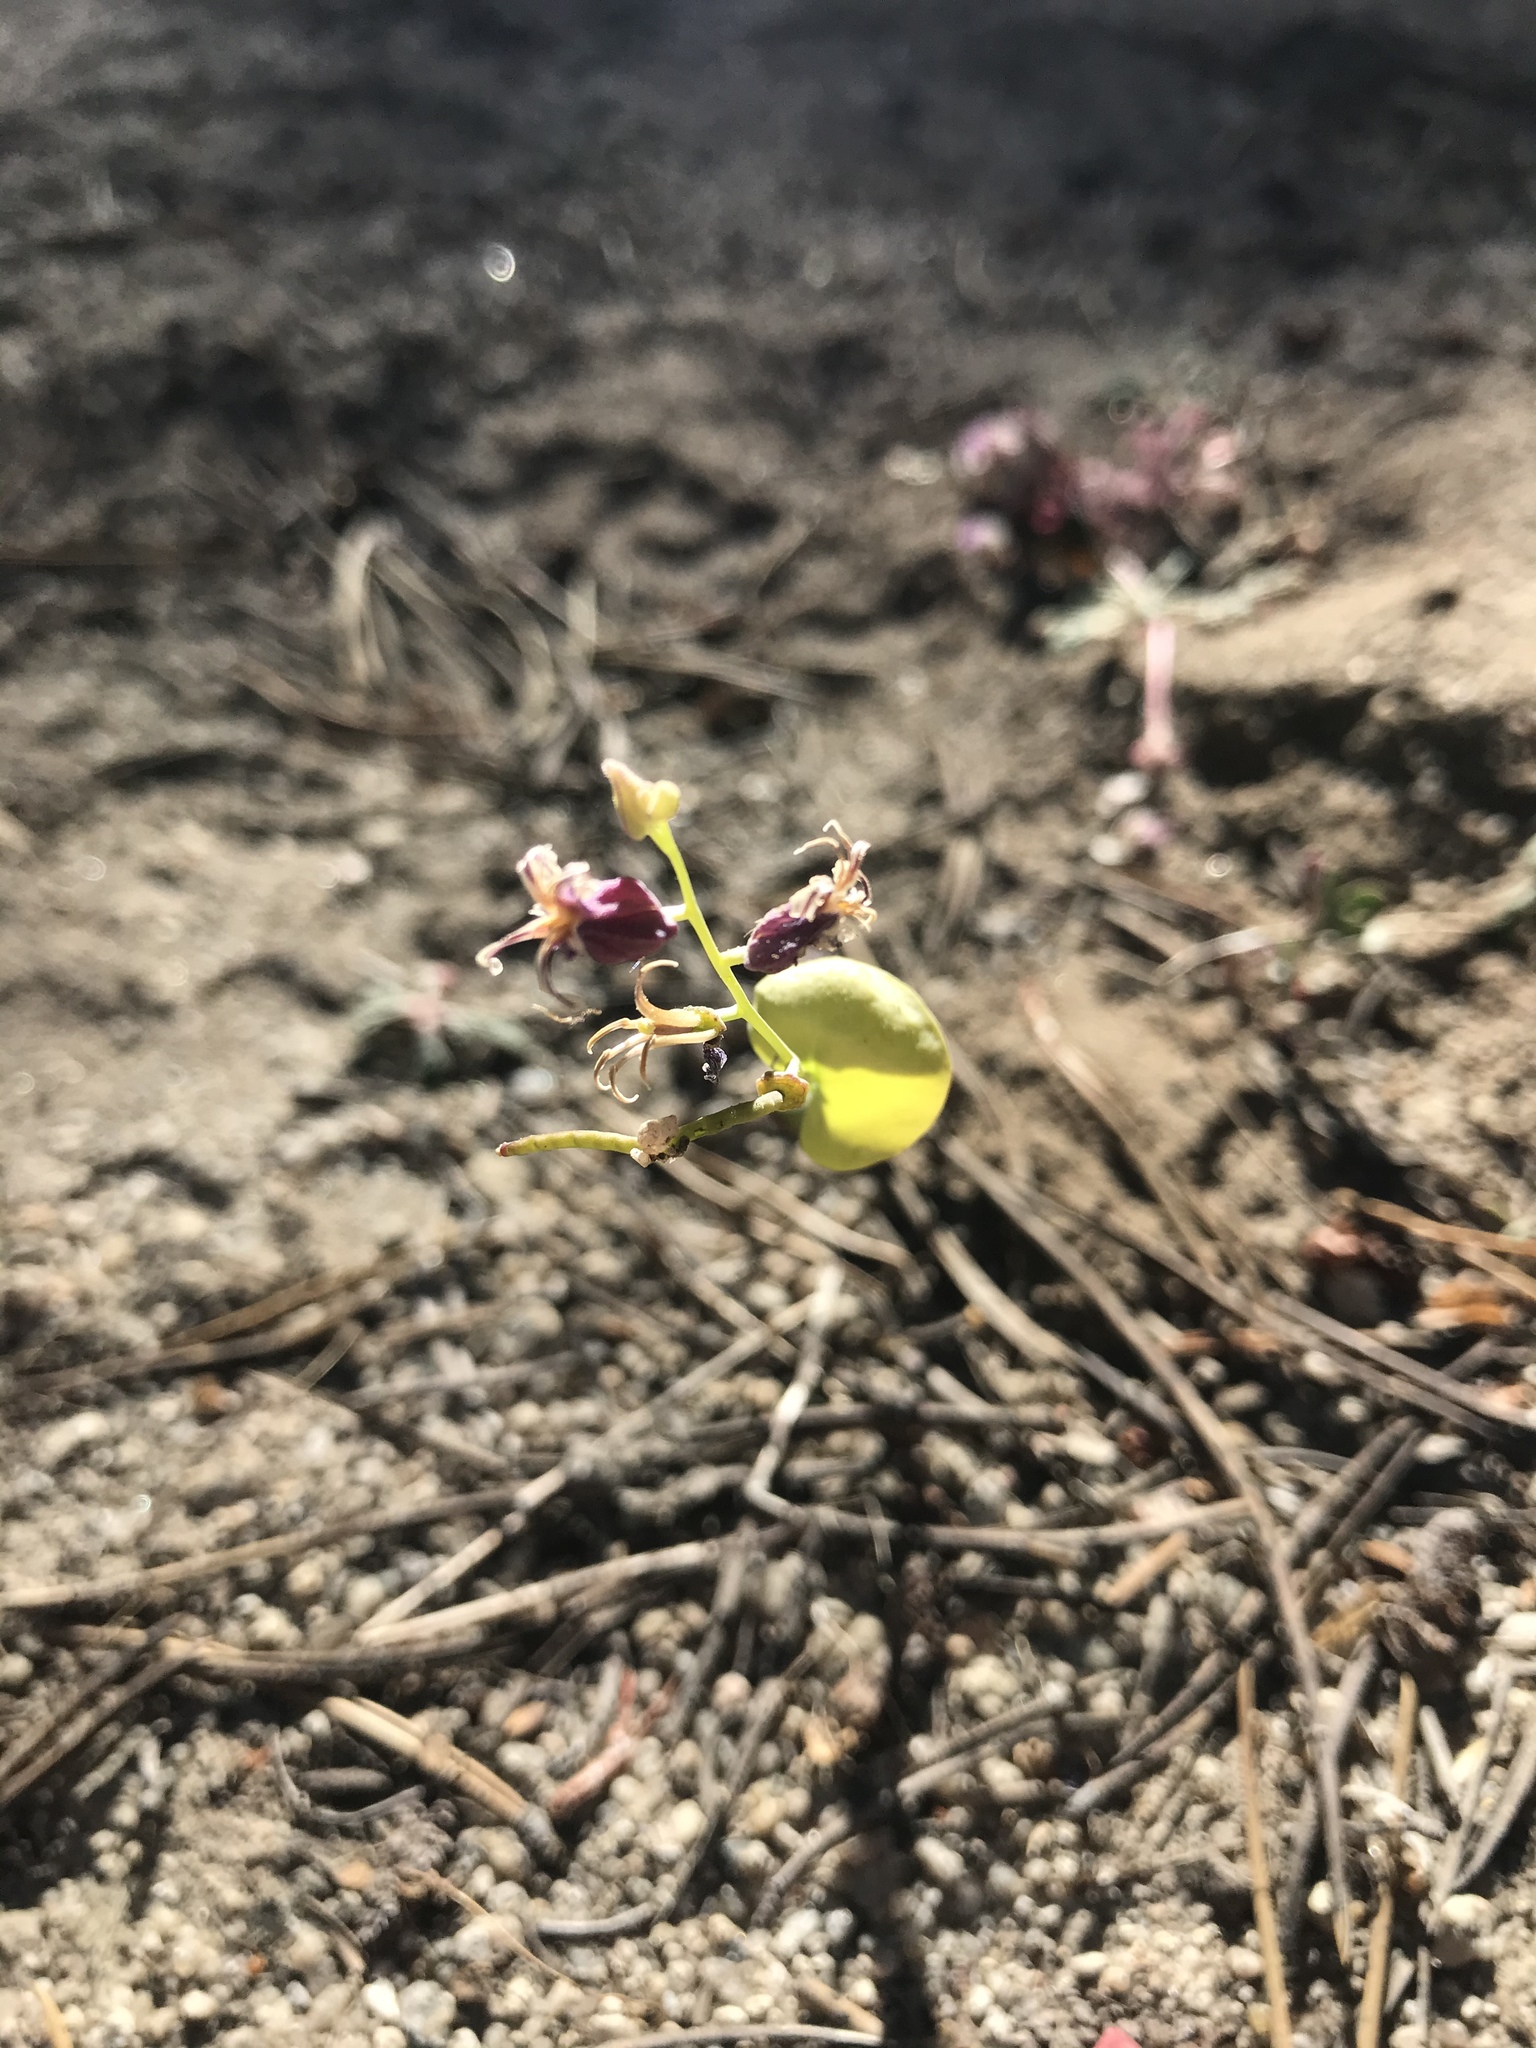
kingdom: Plantae
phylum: Tracheophyta
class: Magnoliopsida
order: Brassicales
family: Brassicaceae
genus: Streptanthus
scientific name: Streptanthus tortuosus
